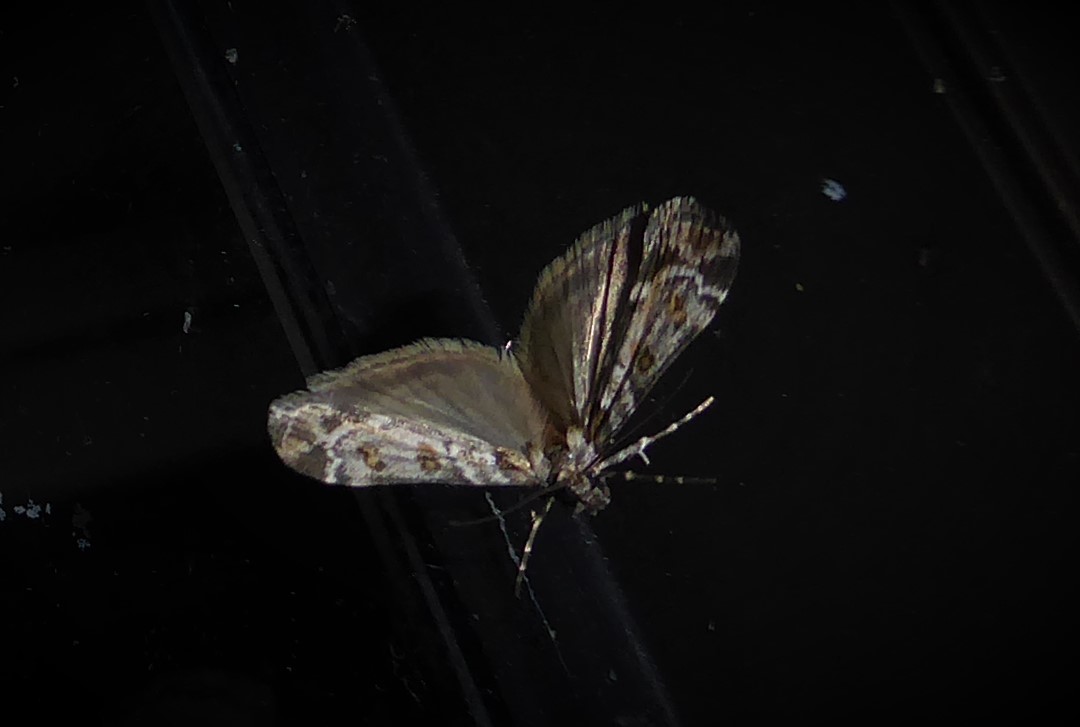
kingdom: Animalia
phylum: Arthropoda
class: Insecta
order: Lepidoptera
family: Crambidae
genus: Eudonia
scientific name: Eudonia diphtheralis
